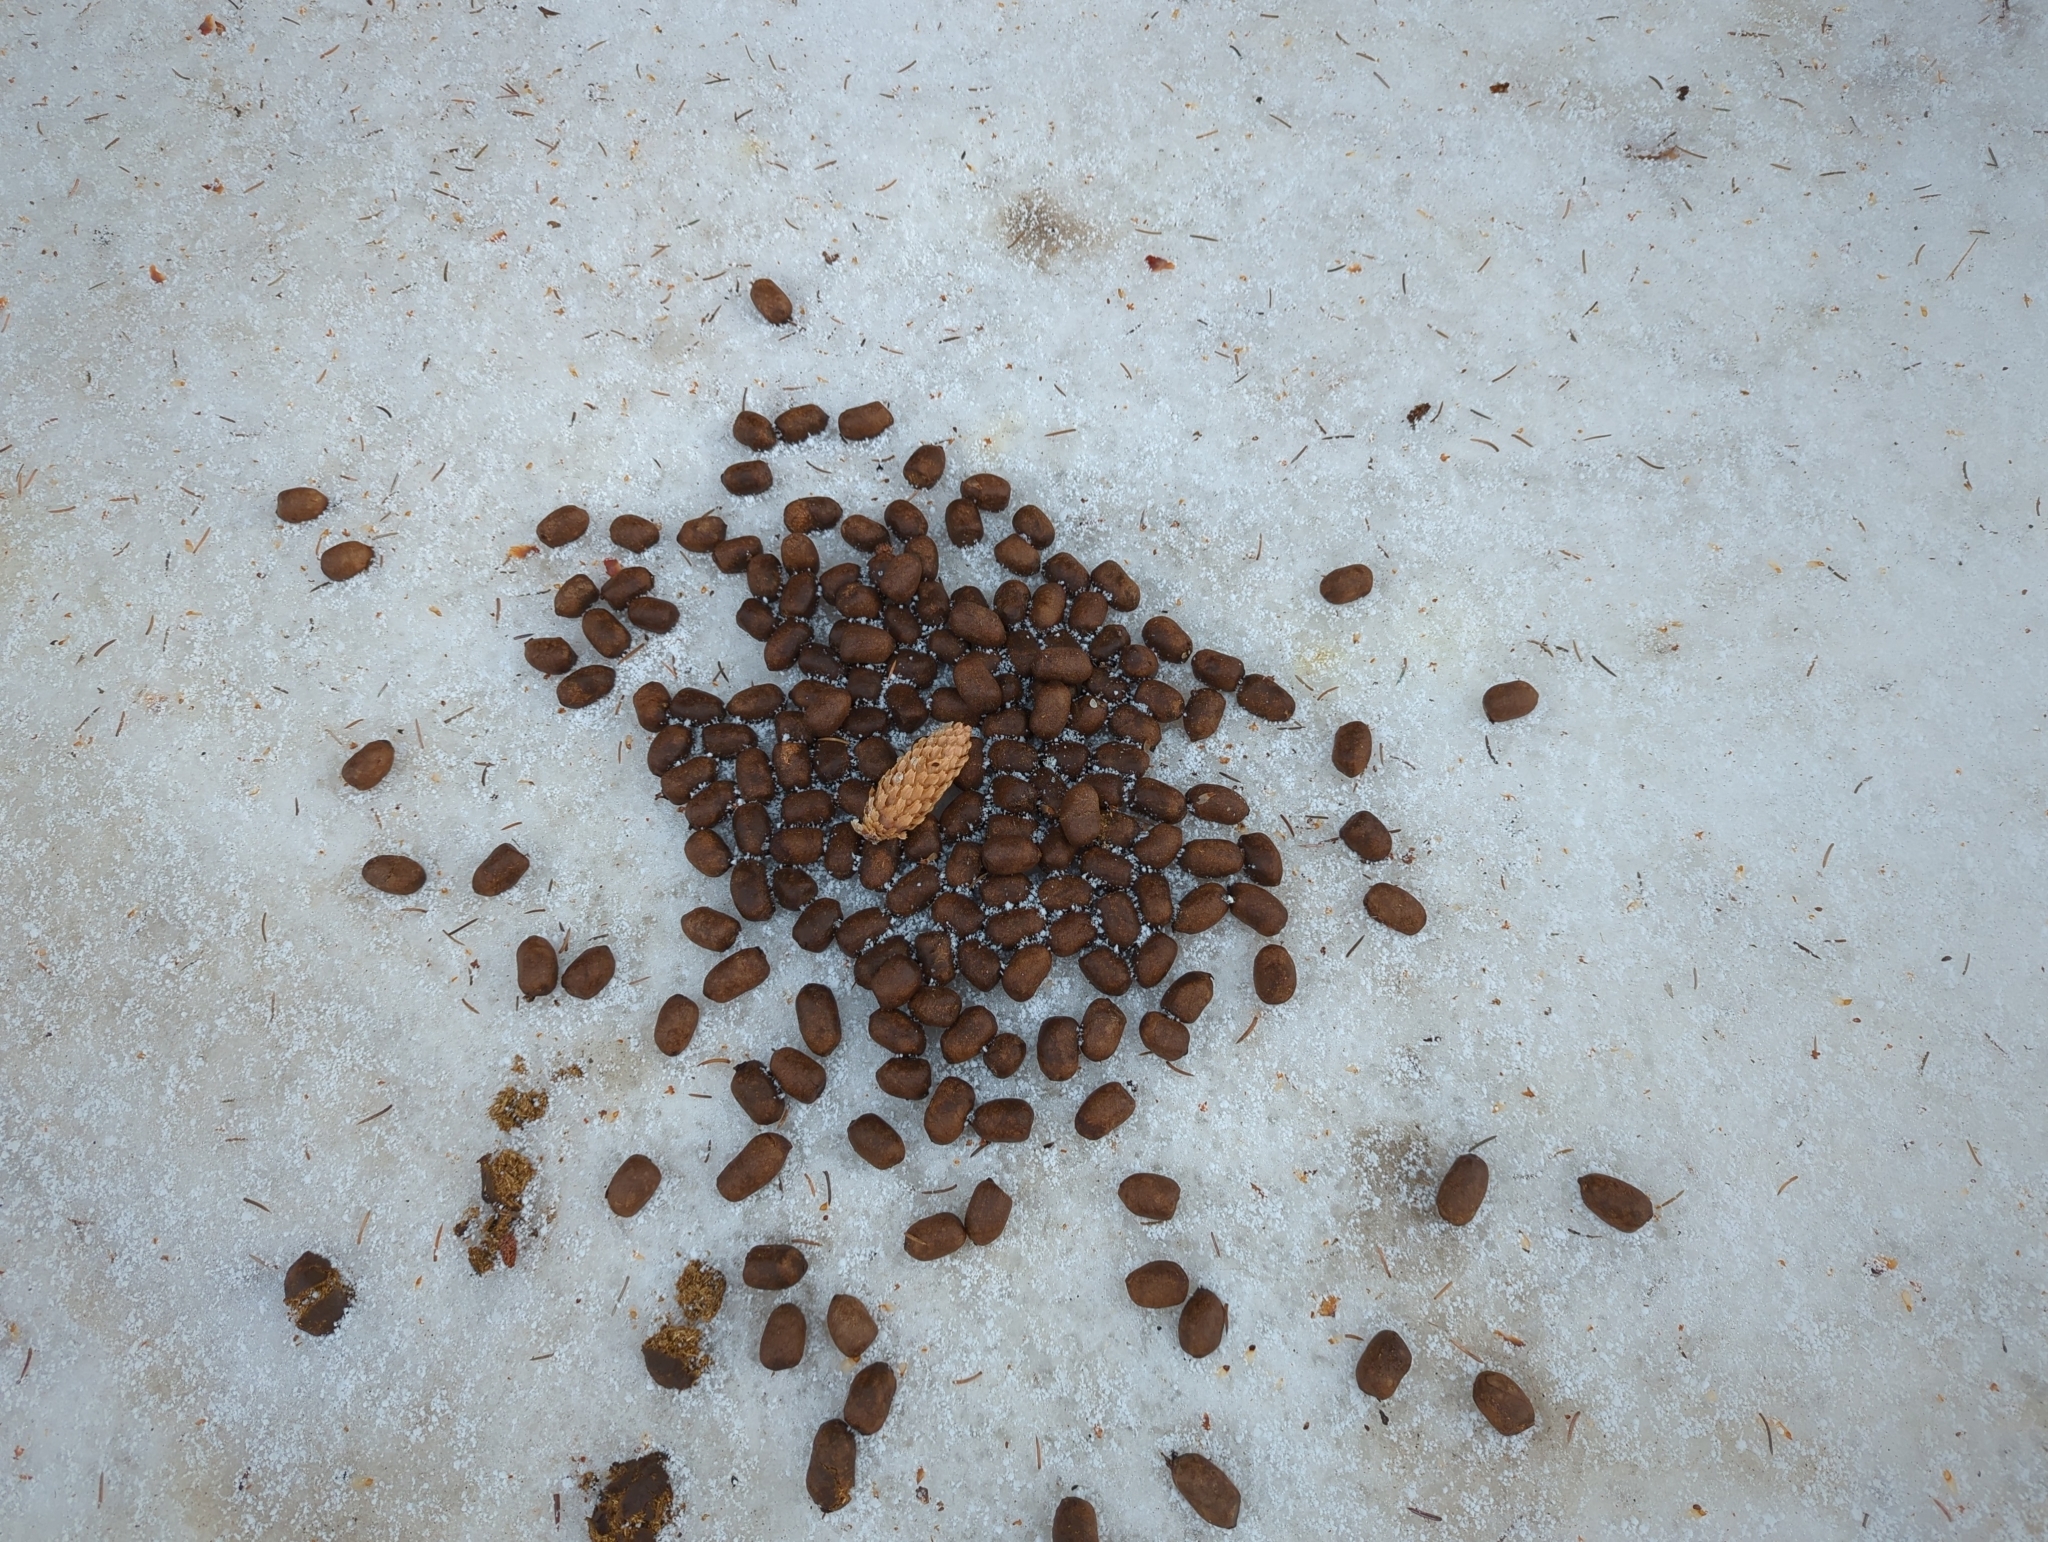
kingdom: Animalia
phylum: Chordata
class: Mammalia
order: Artiodactyla
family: Cervidae
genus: Alces
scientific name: Alces alces
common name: Moose
